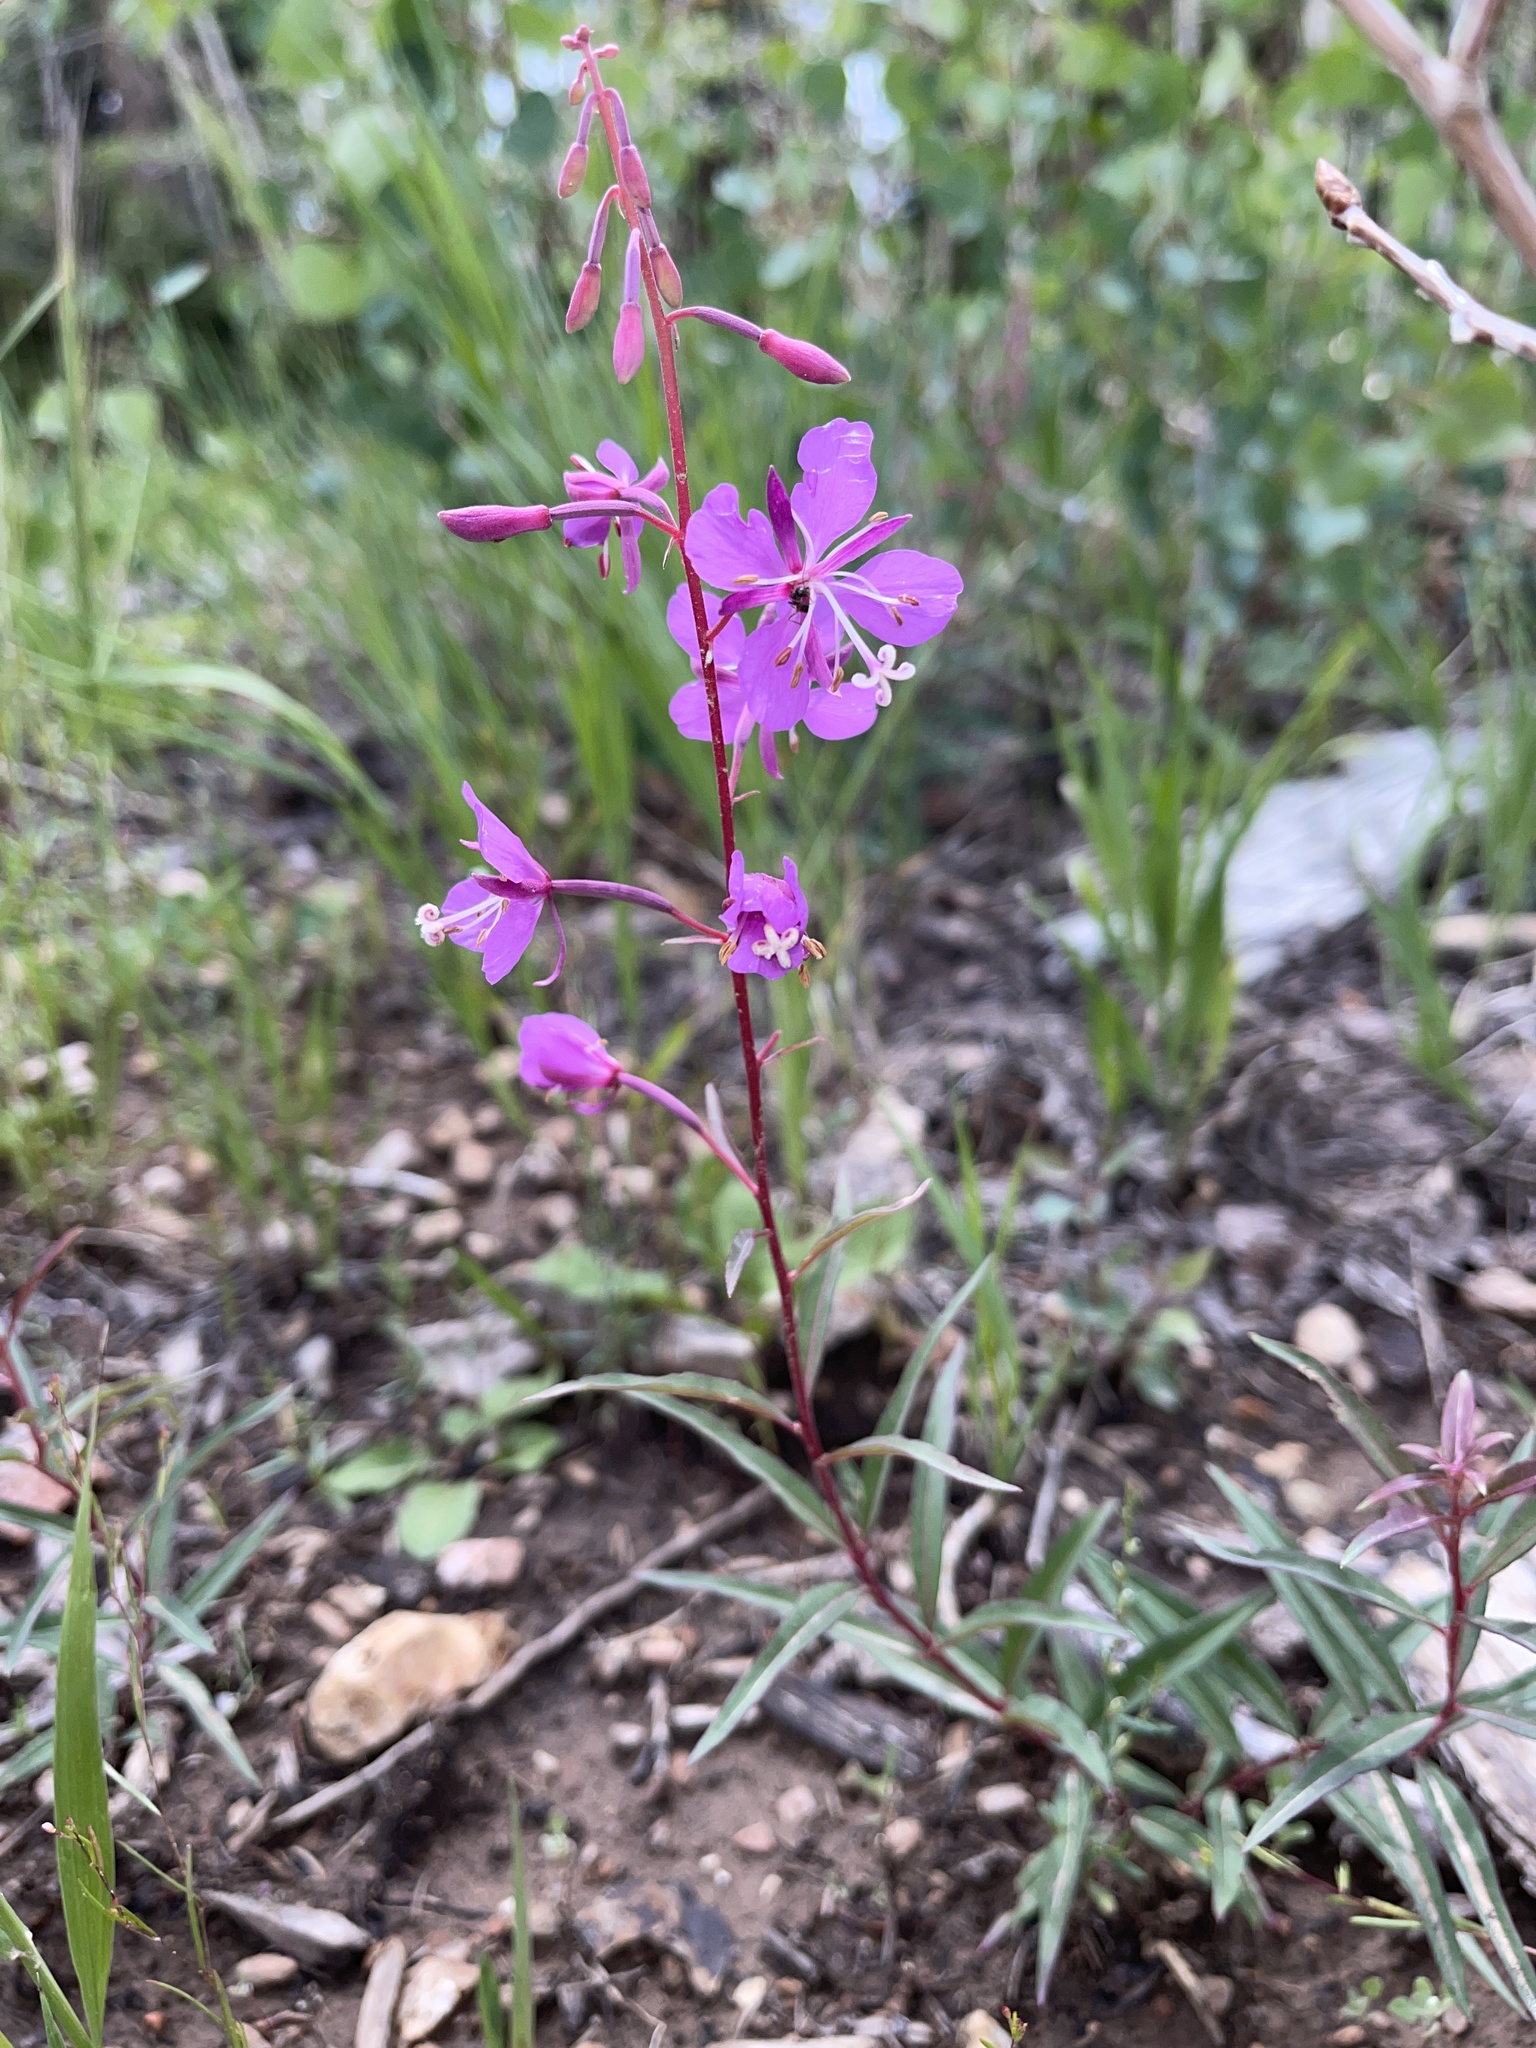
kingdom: Plantae
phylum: Tracheophyta
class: Magnoliopsida
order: Myrtales
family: Onagraceae
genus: Chamaenerion
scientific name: Chamaenerion angustifolium
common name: Fireweed
